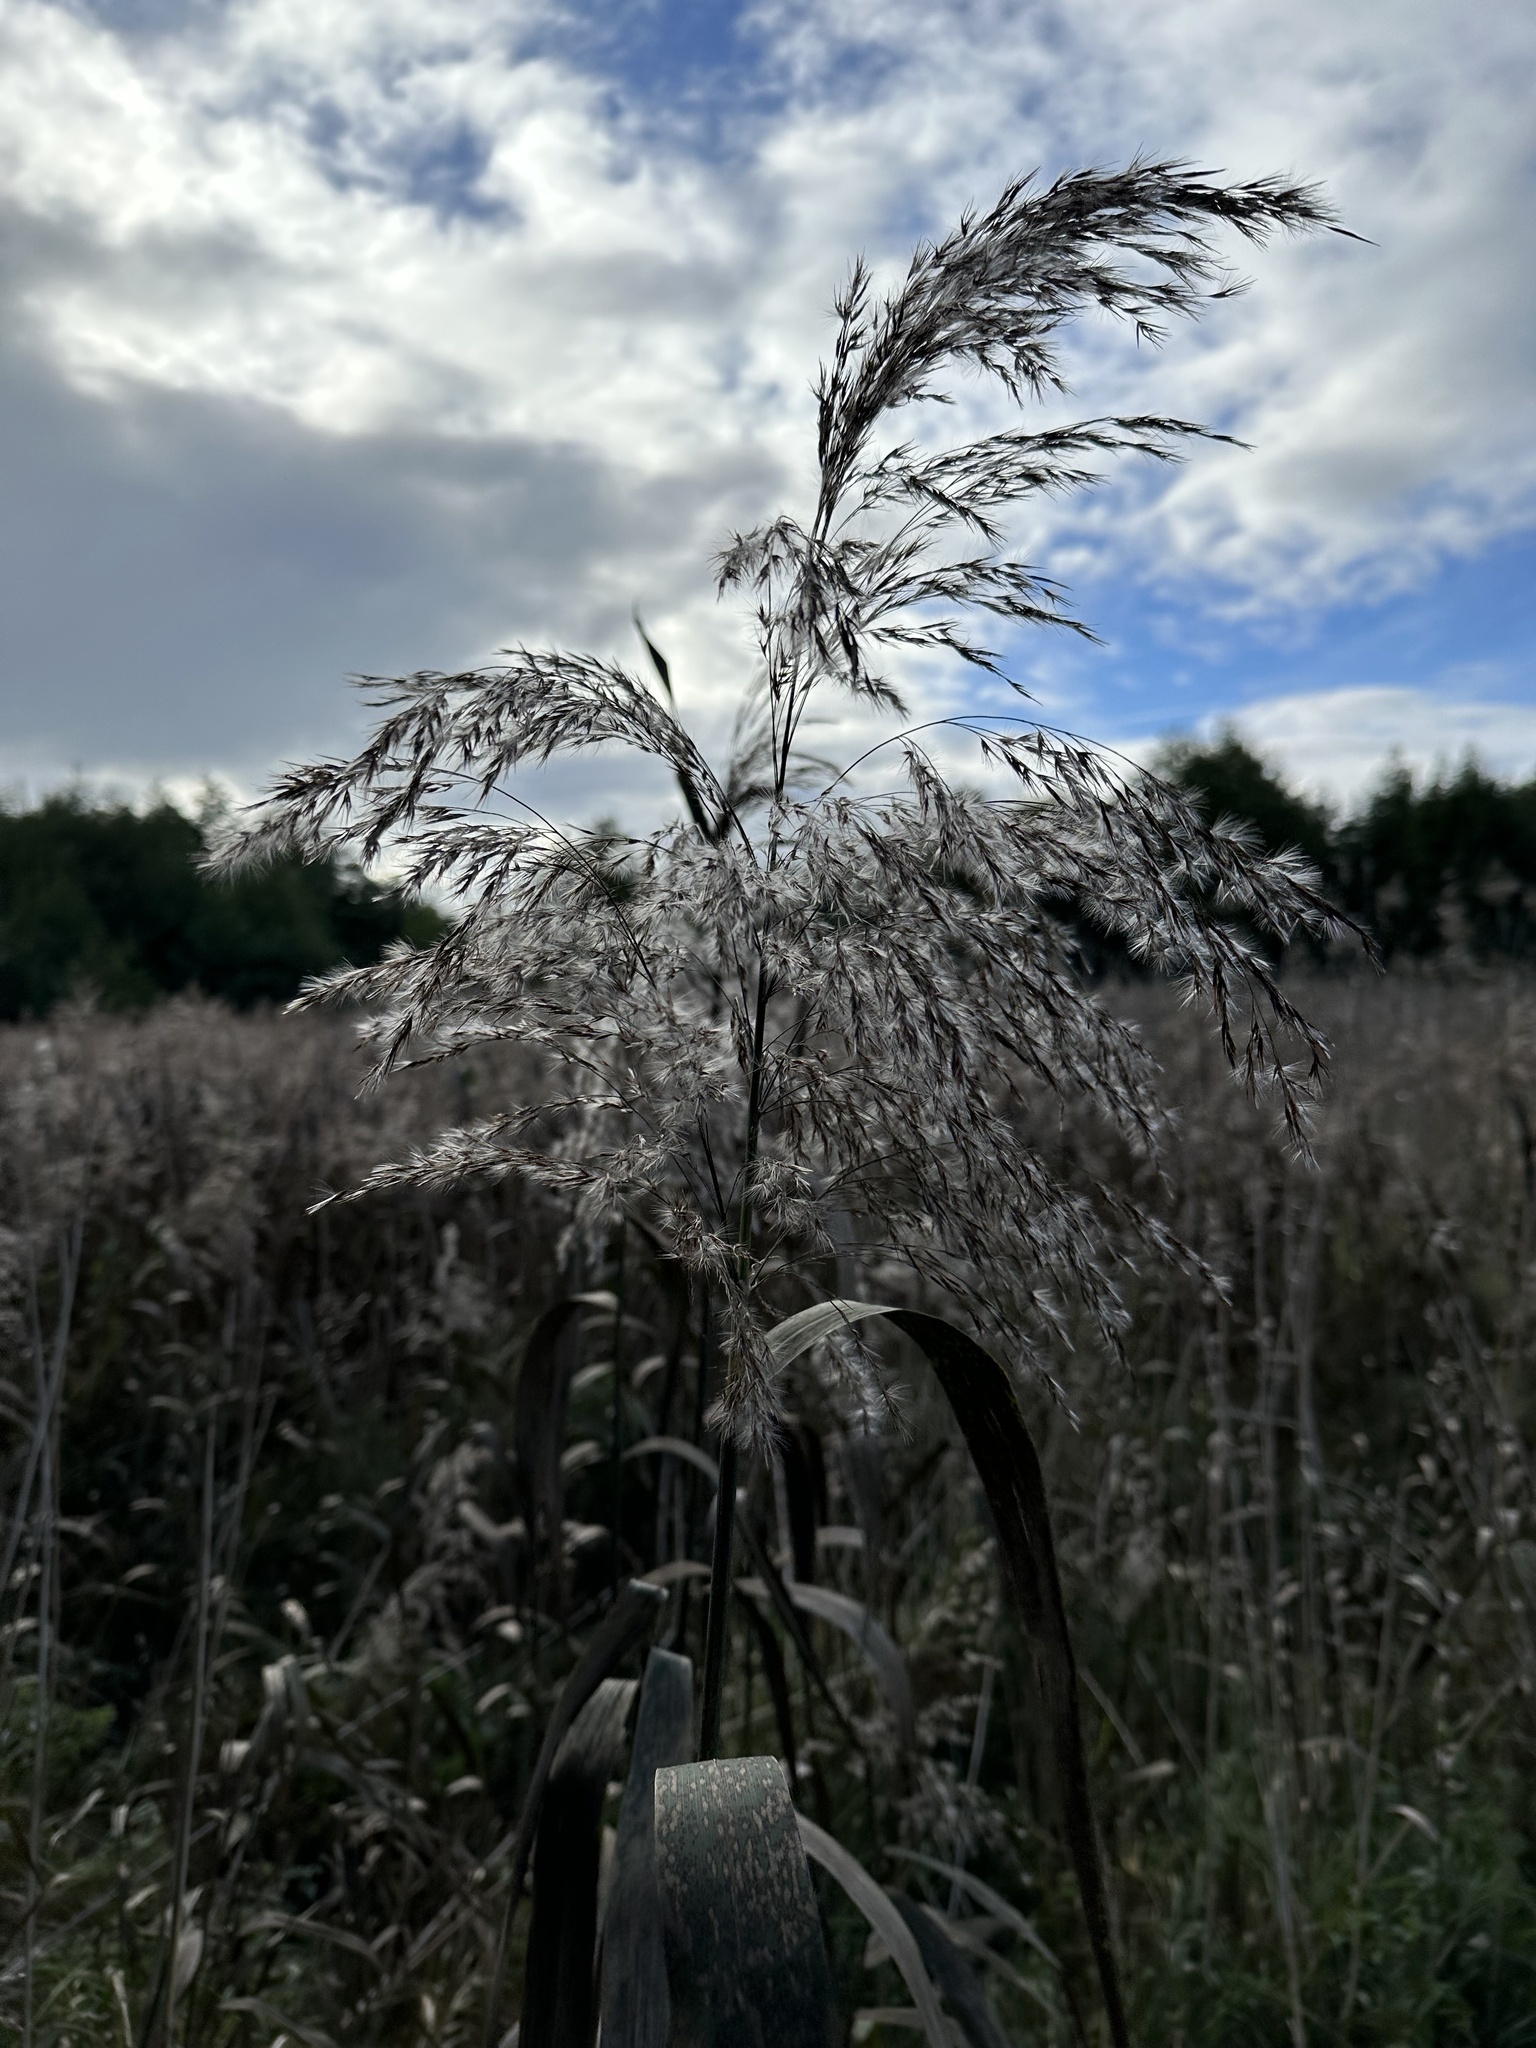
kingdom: Plantae
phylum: Tracheophyta
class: Liliopsida
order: Poales
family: Poaceae
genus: Phragmites
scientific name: Phragmites australis
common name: Common reed
